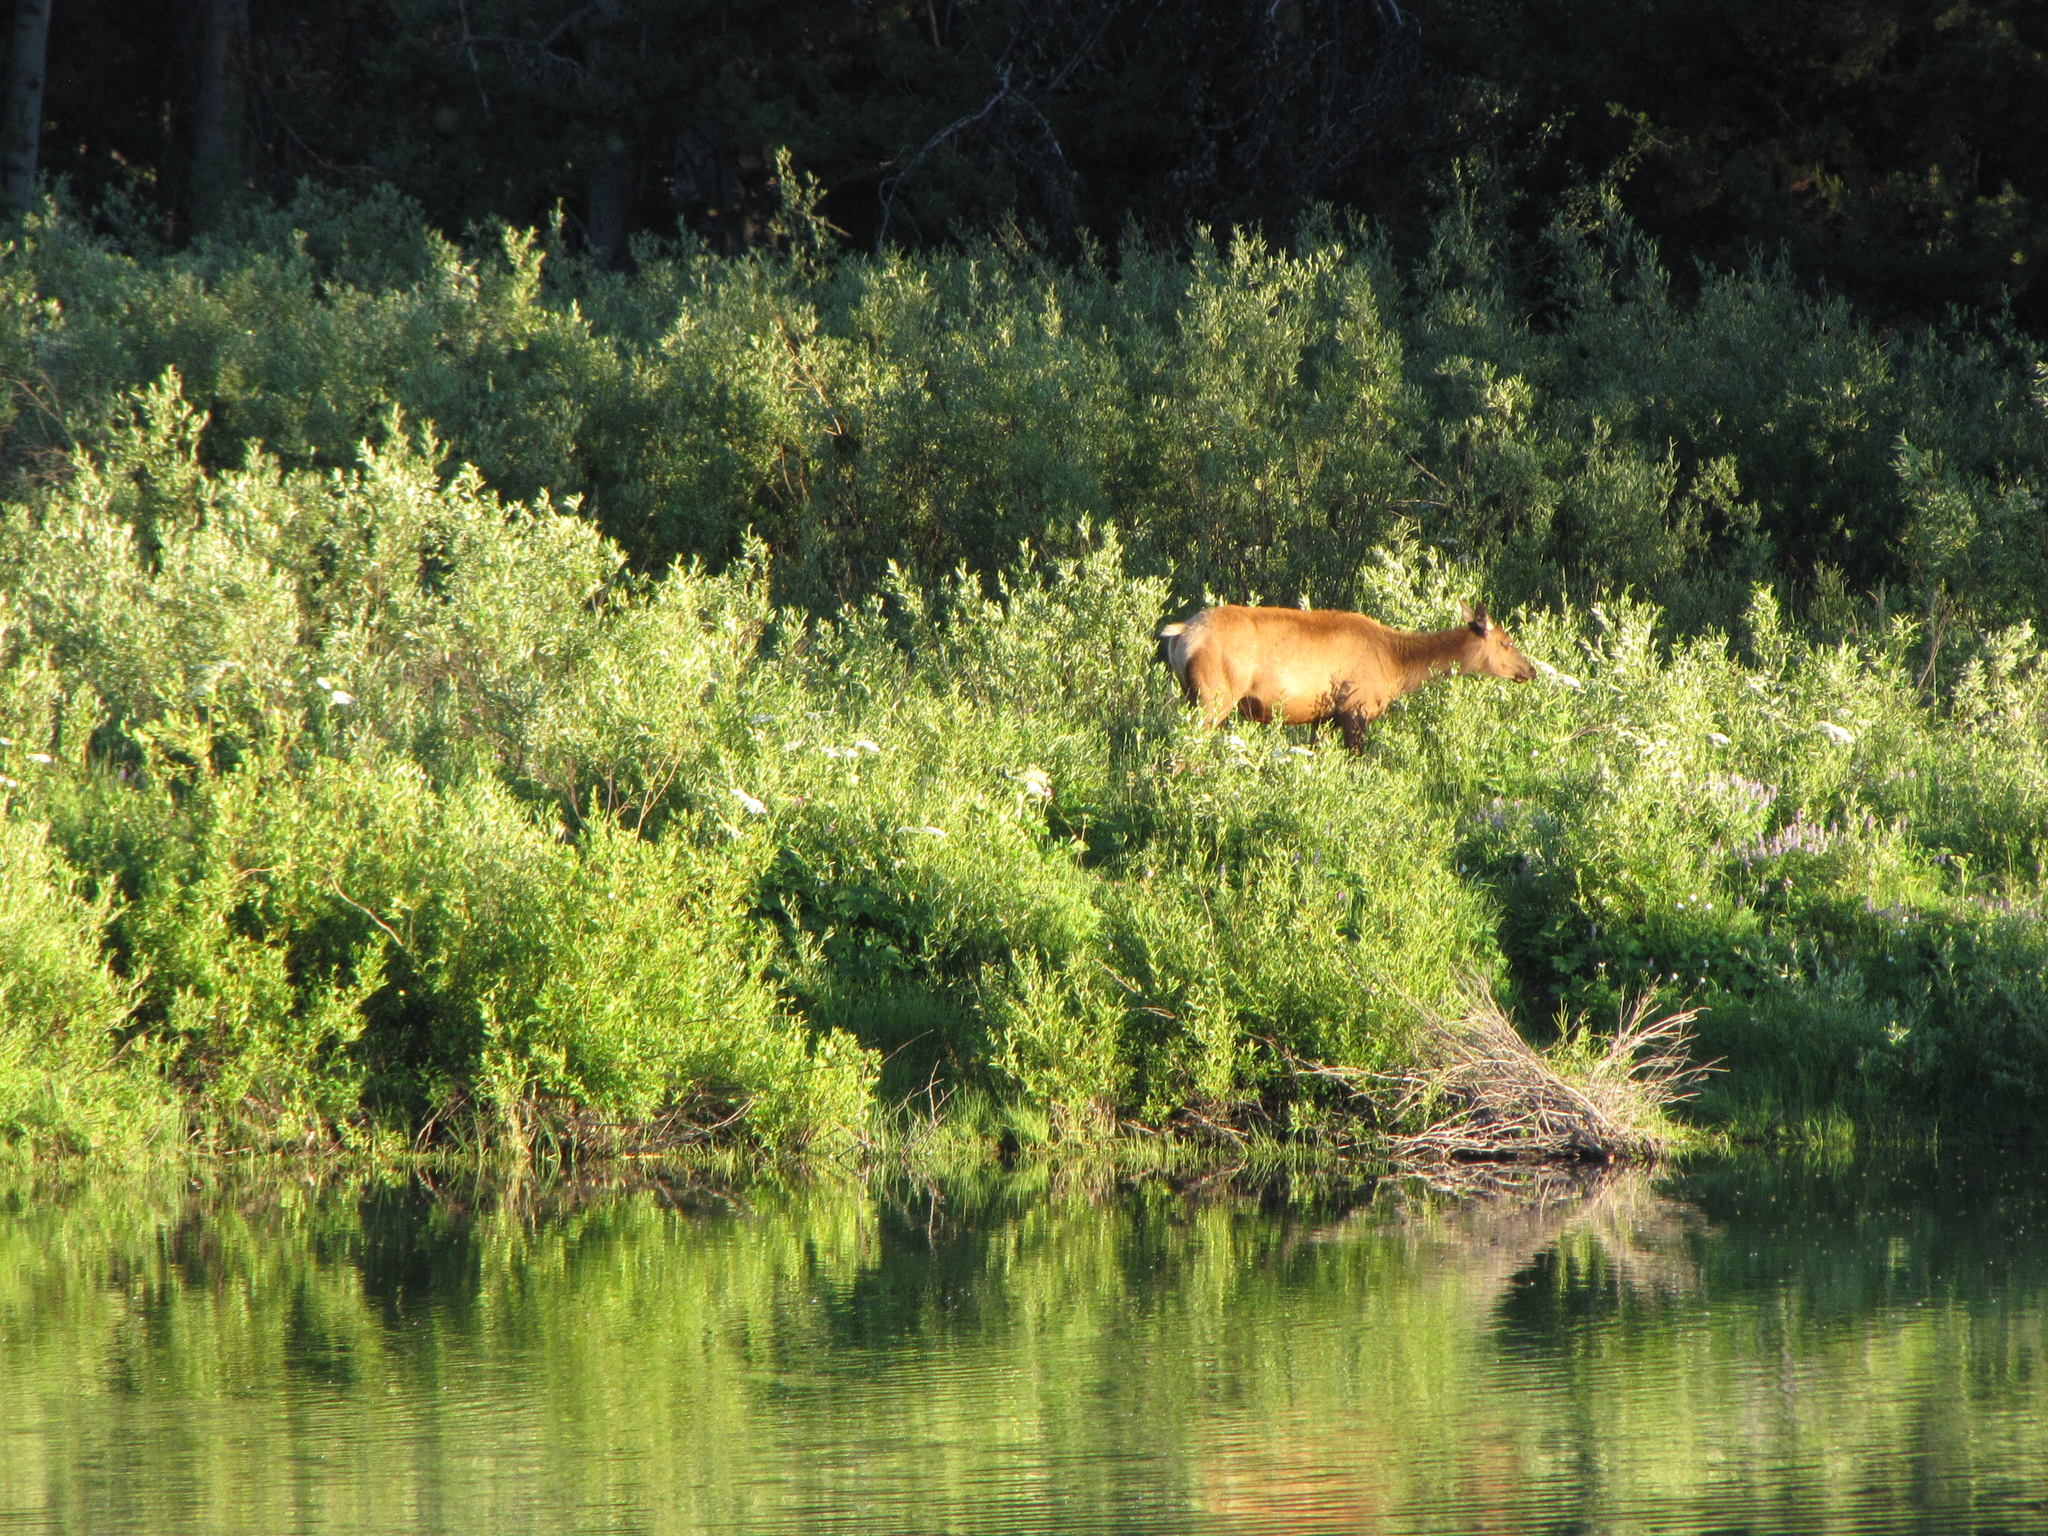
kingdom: Animalia
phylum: Chordata
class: Mammalia
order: Artiodactyla
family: Cervidae
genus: Cervus
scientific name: Cervus elaphus
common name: Red deer
